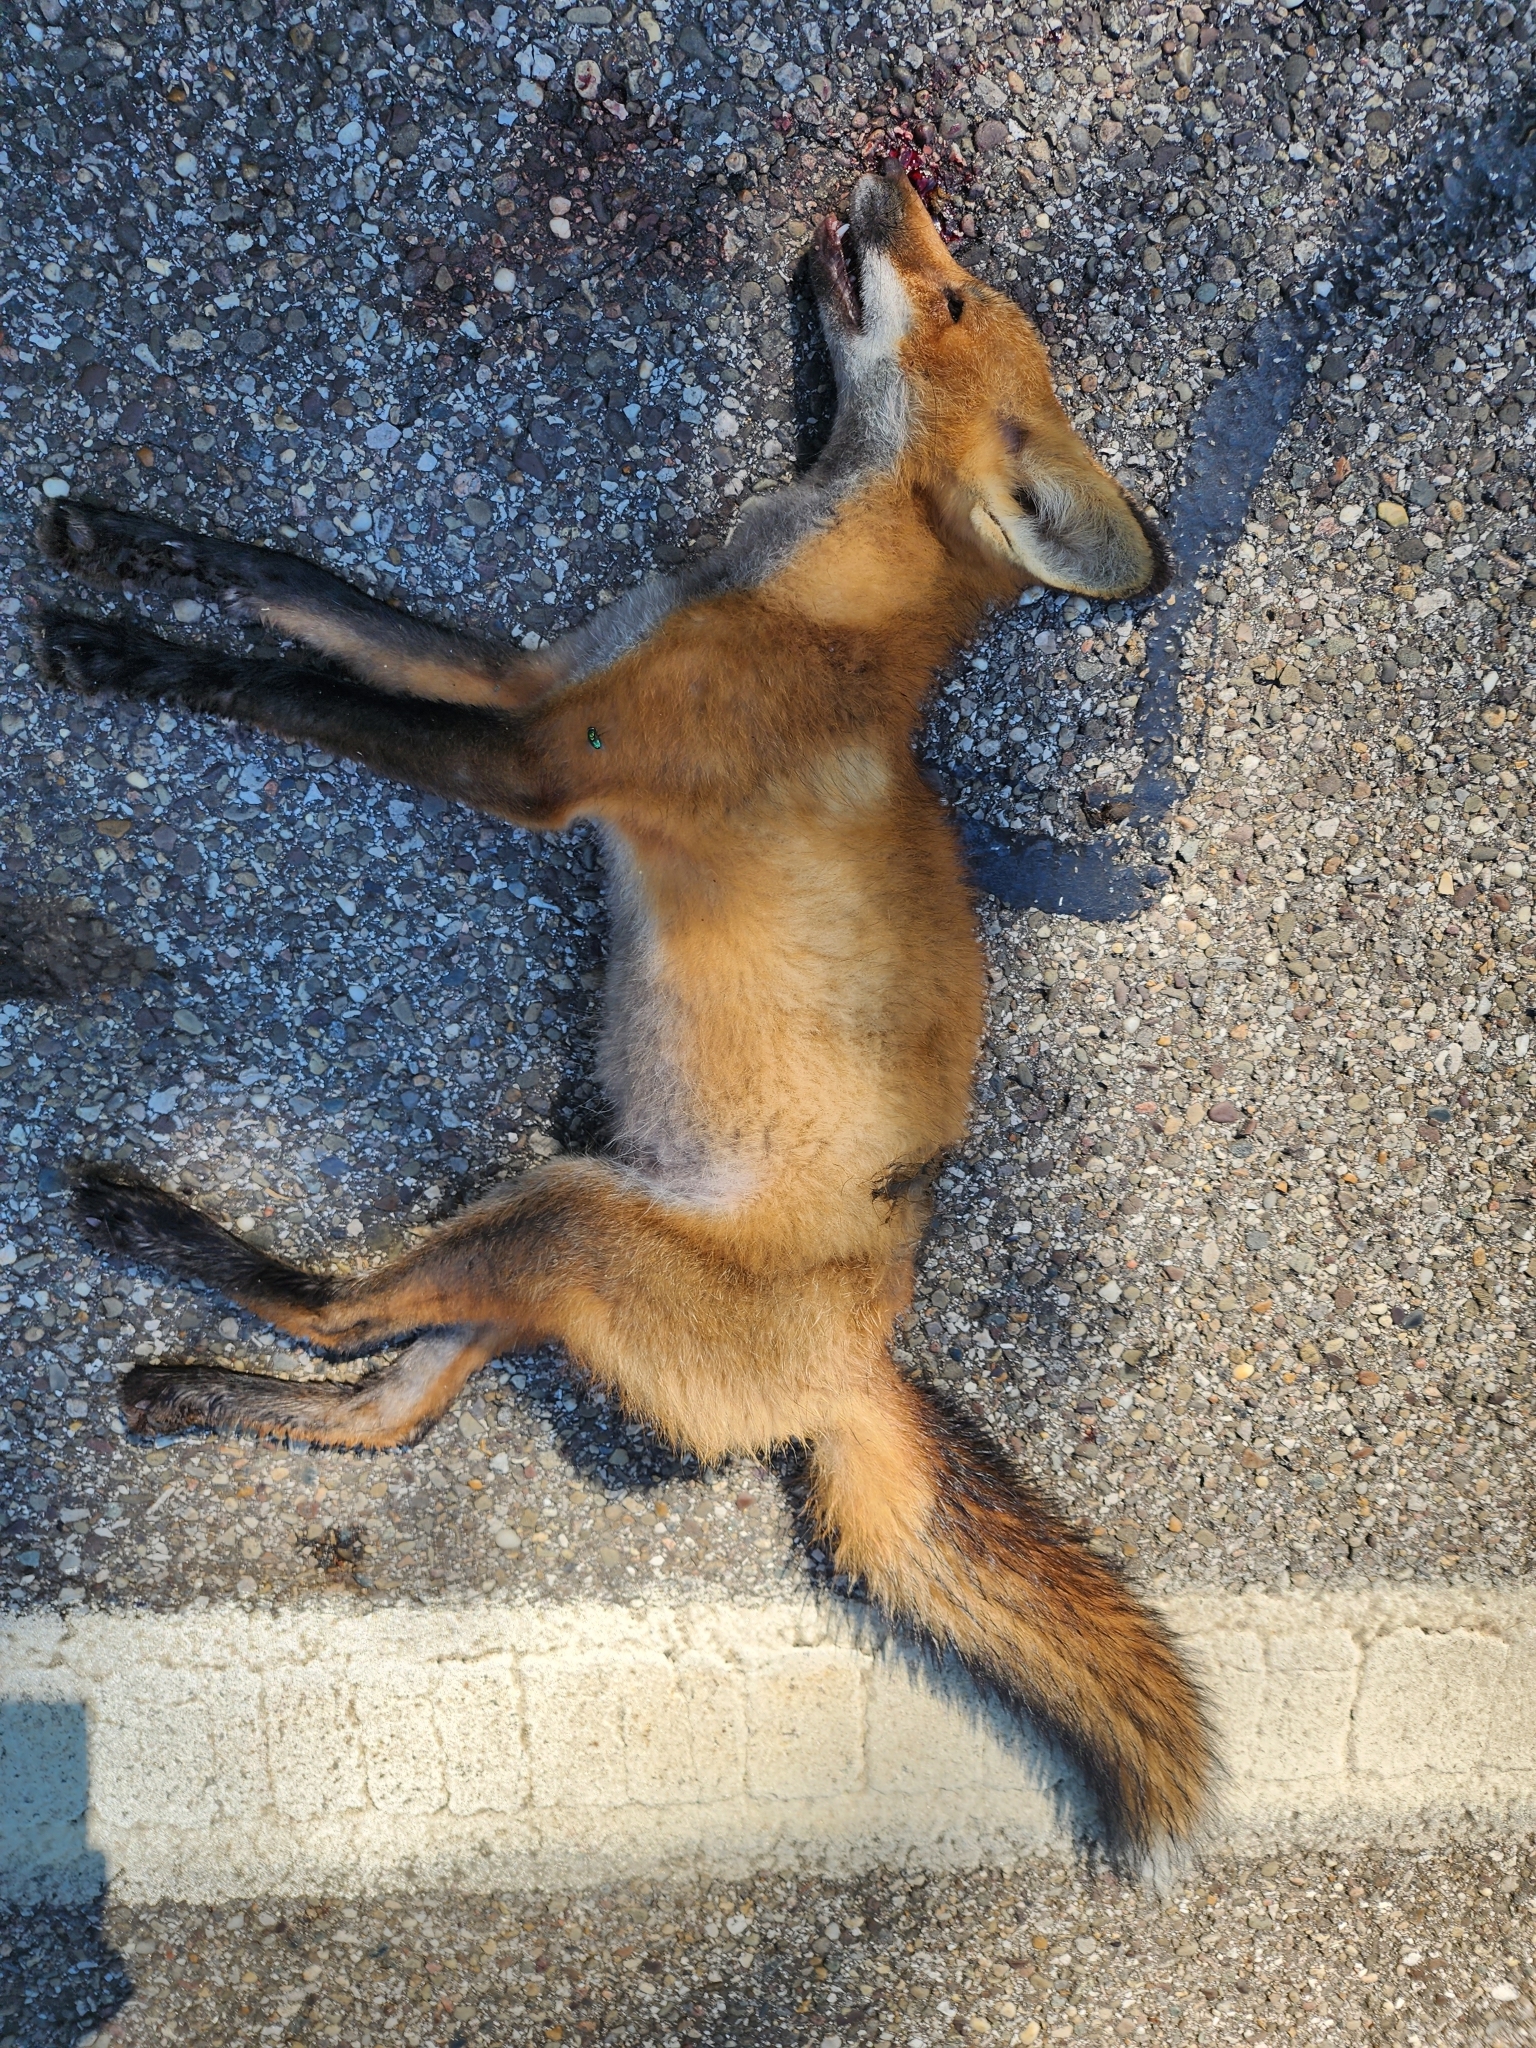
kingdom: Animalia
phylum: Chordata
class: Mammalia
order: Carnivora
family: Canidae
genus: Vulpes
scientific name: Vulpes vulpes
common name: Red fox
